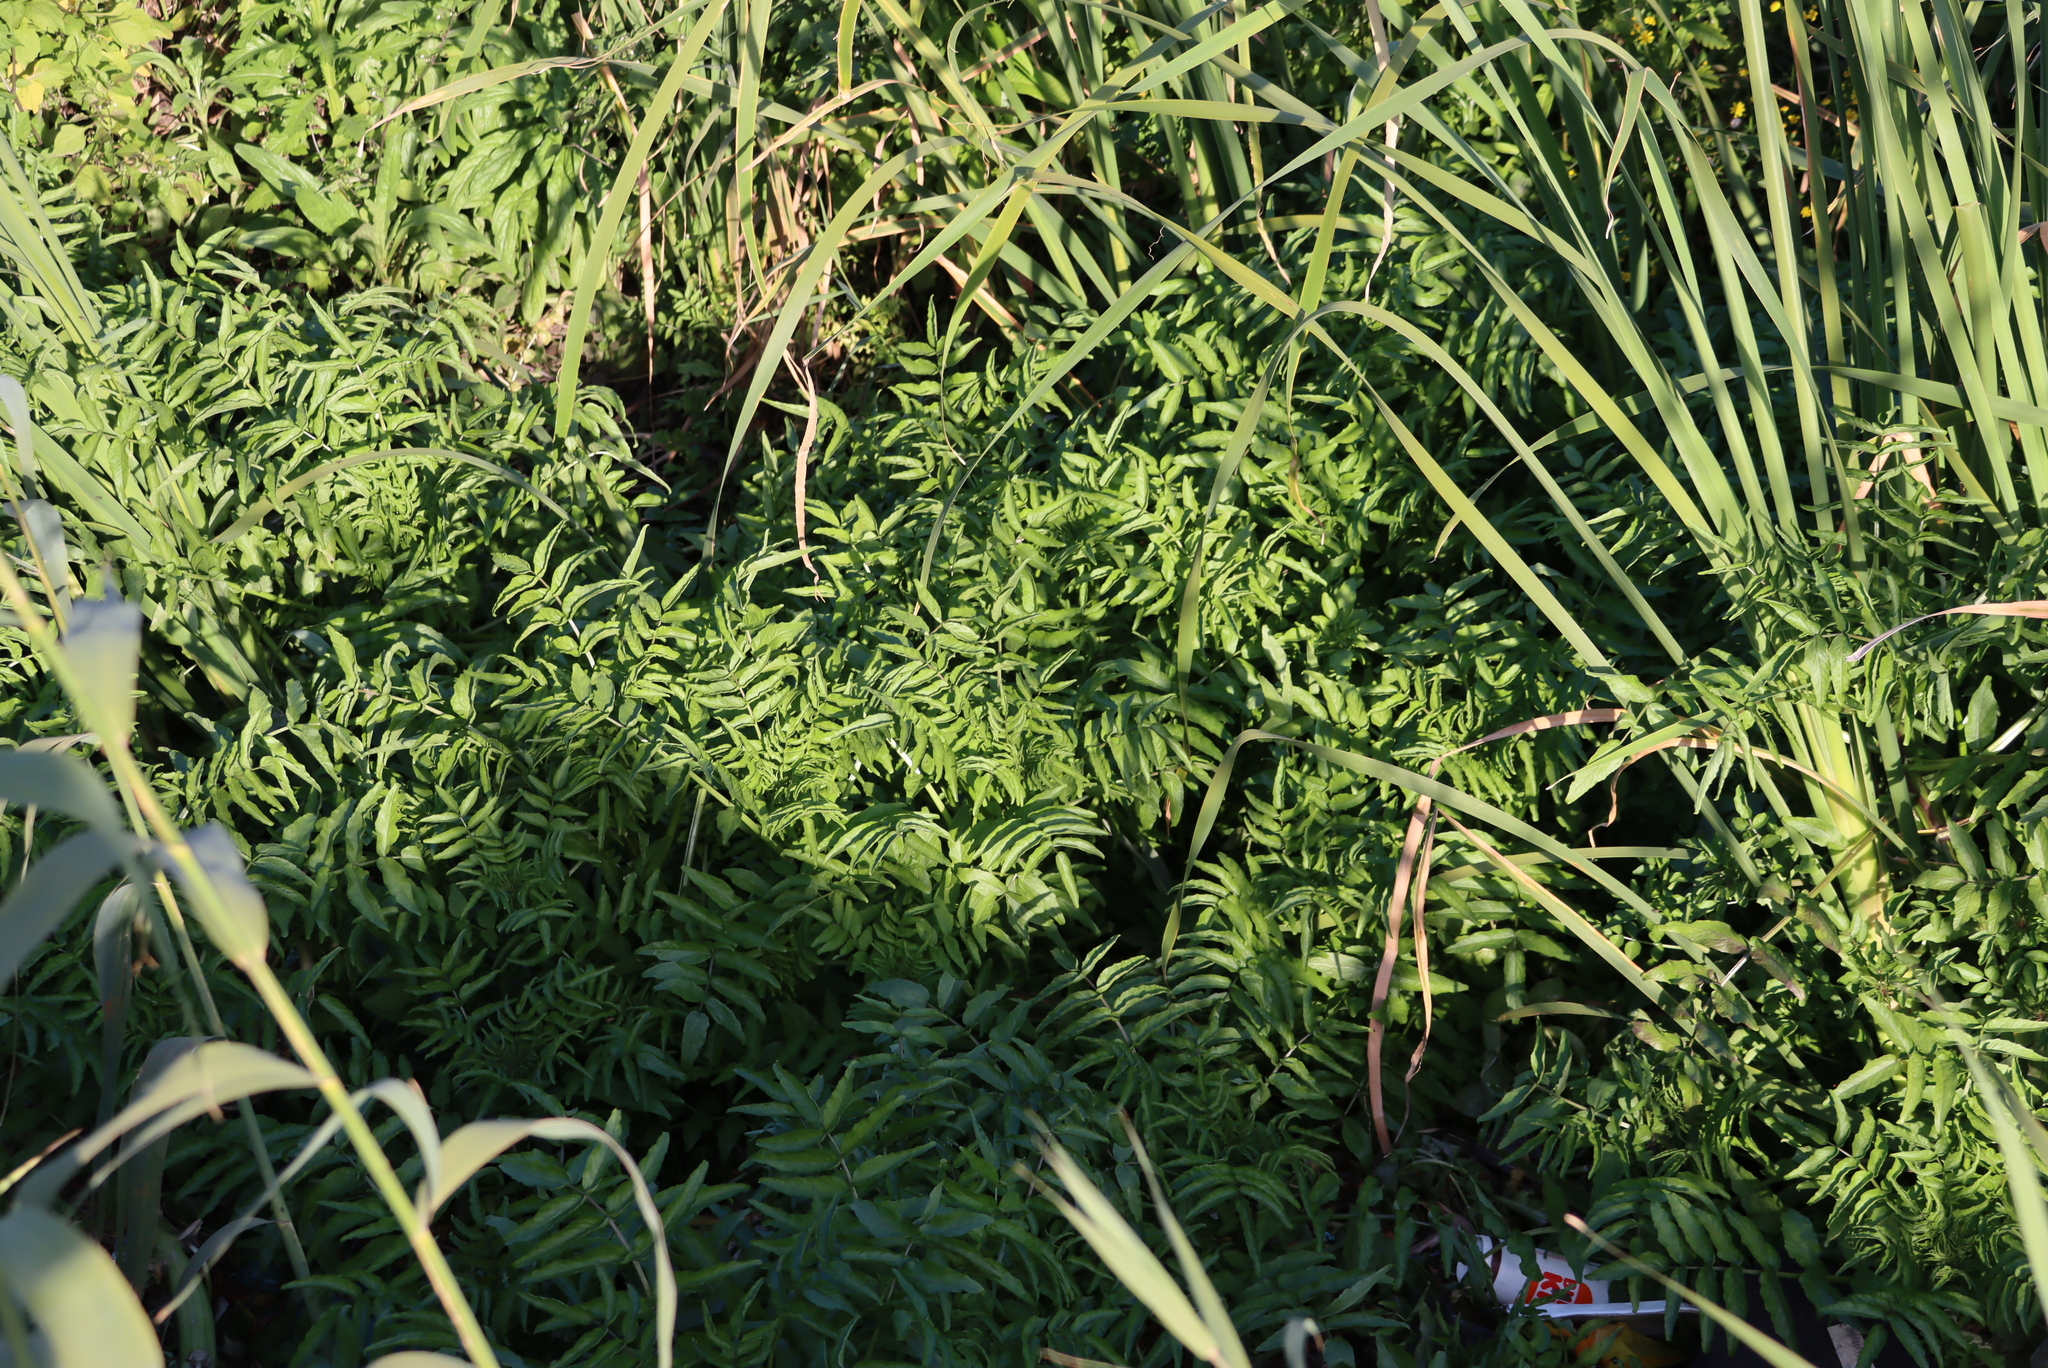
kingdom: Plantae
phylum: Tracheophyta
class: Liliopsida
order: Poales
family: Poaceae
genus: Phragmites
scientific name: Phragmites australis
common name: Common reed
